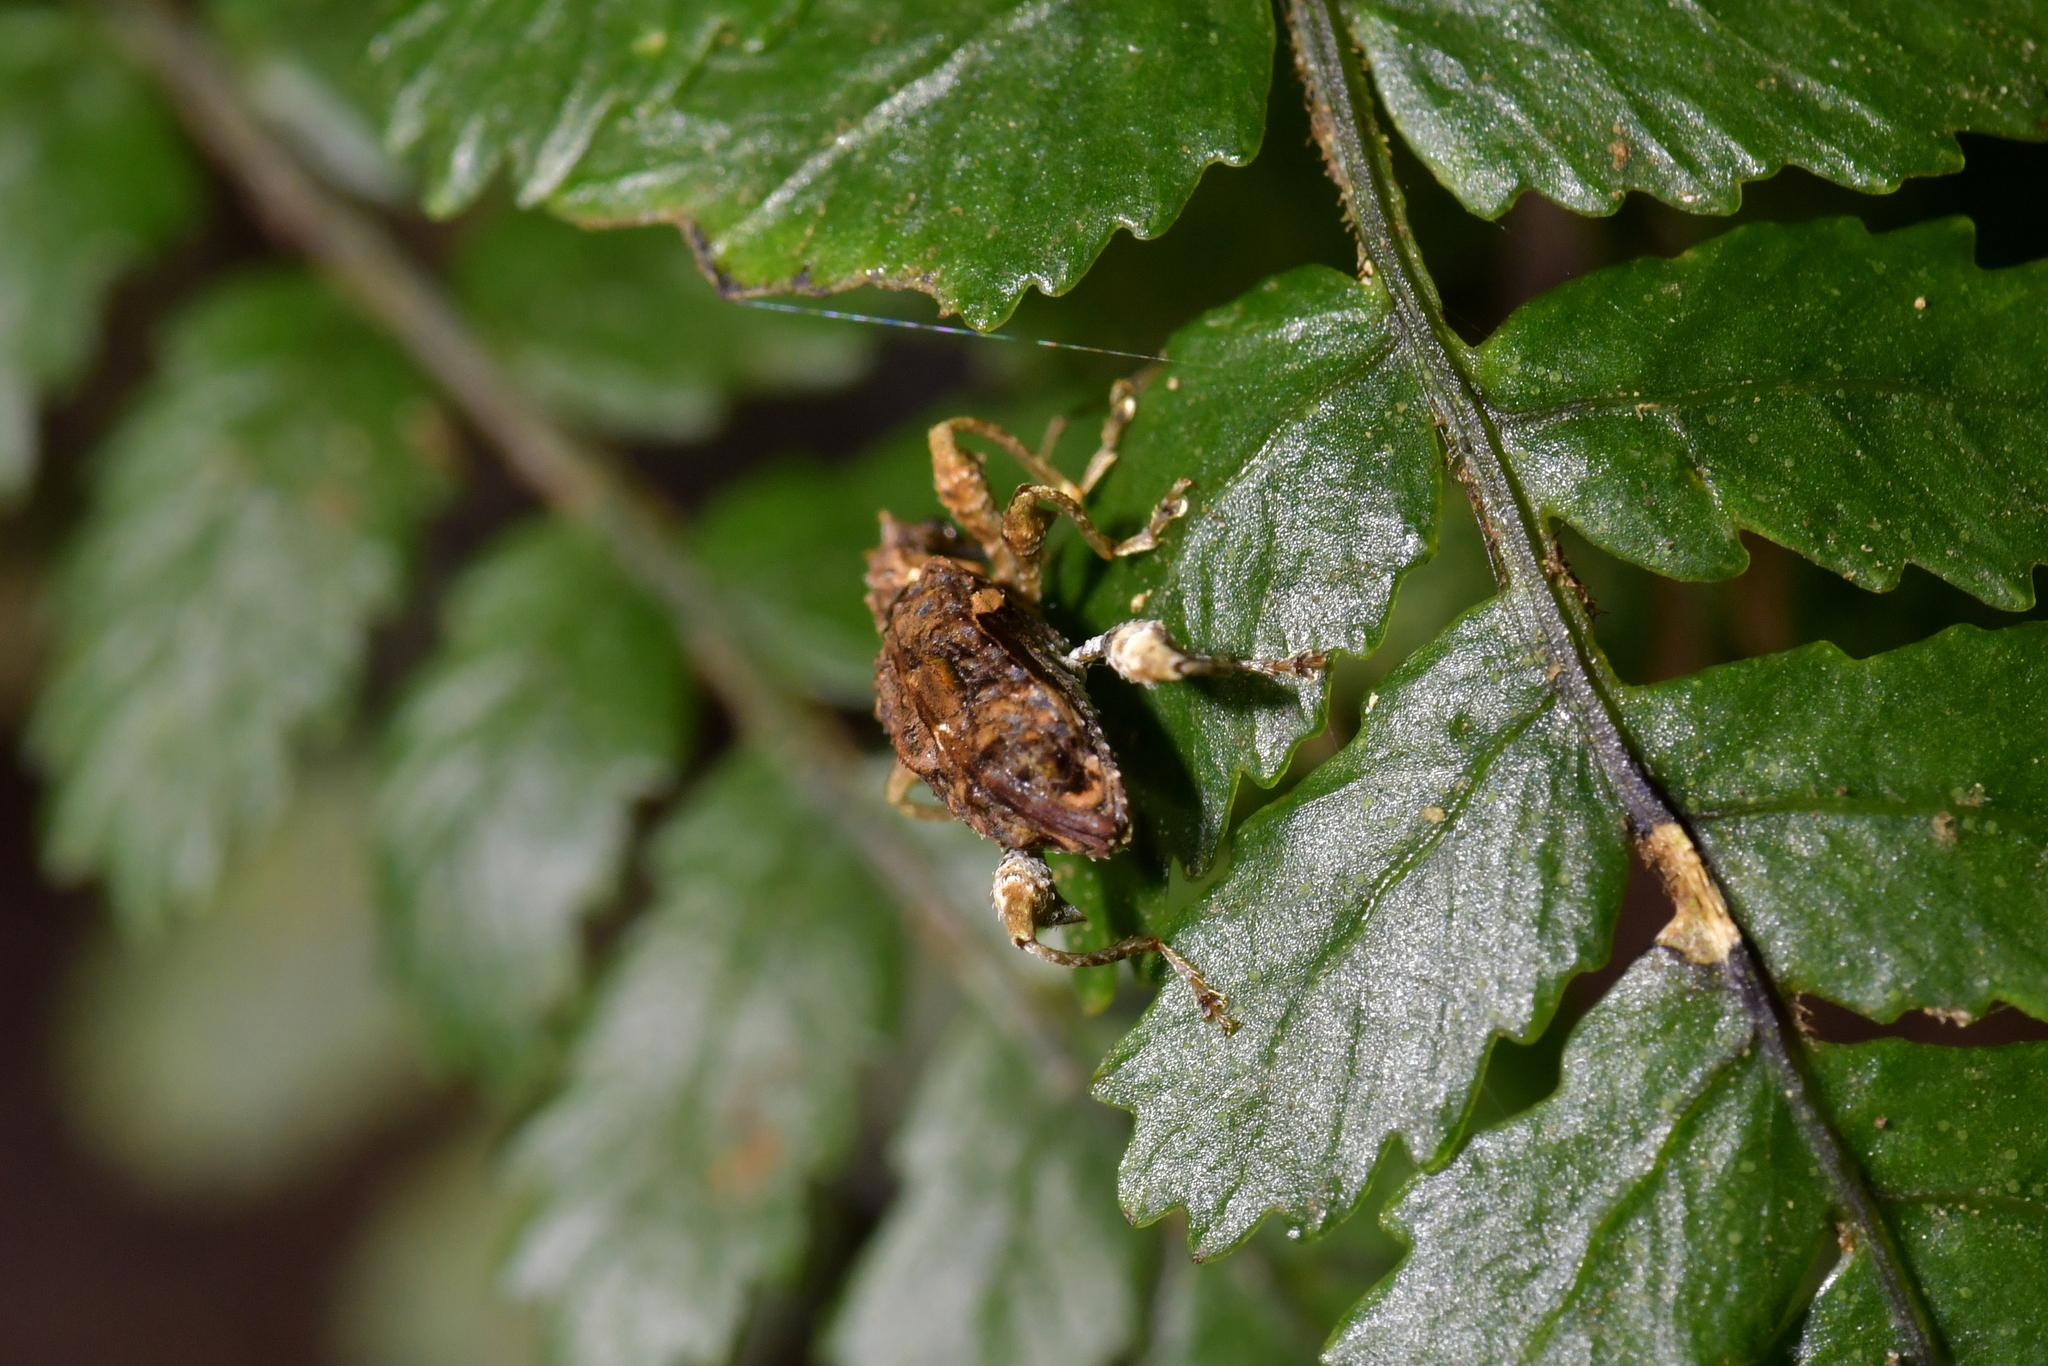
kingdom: Animalia
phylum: Arthropoda
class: Insecta
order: Coleoptera
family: Curculionidae
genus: Stephanorhynchus
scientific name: Stephanorhynchus curvipes
